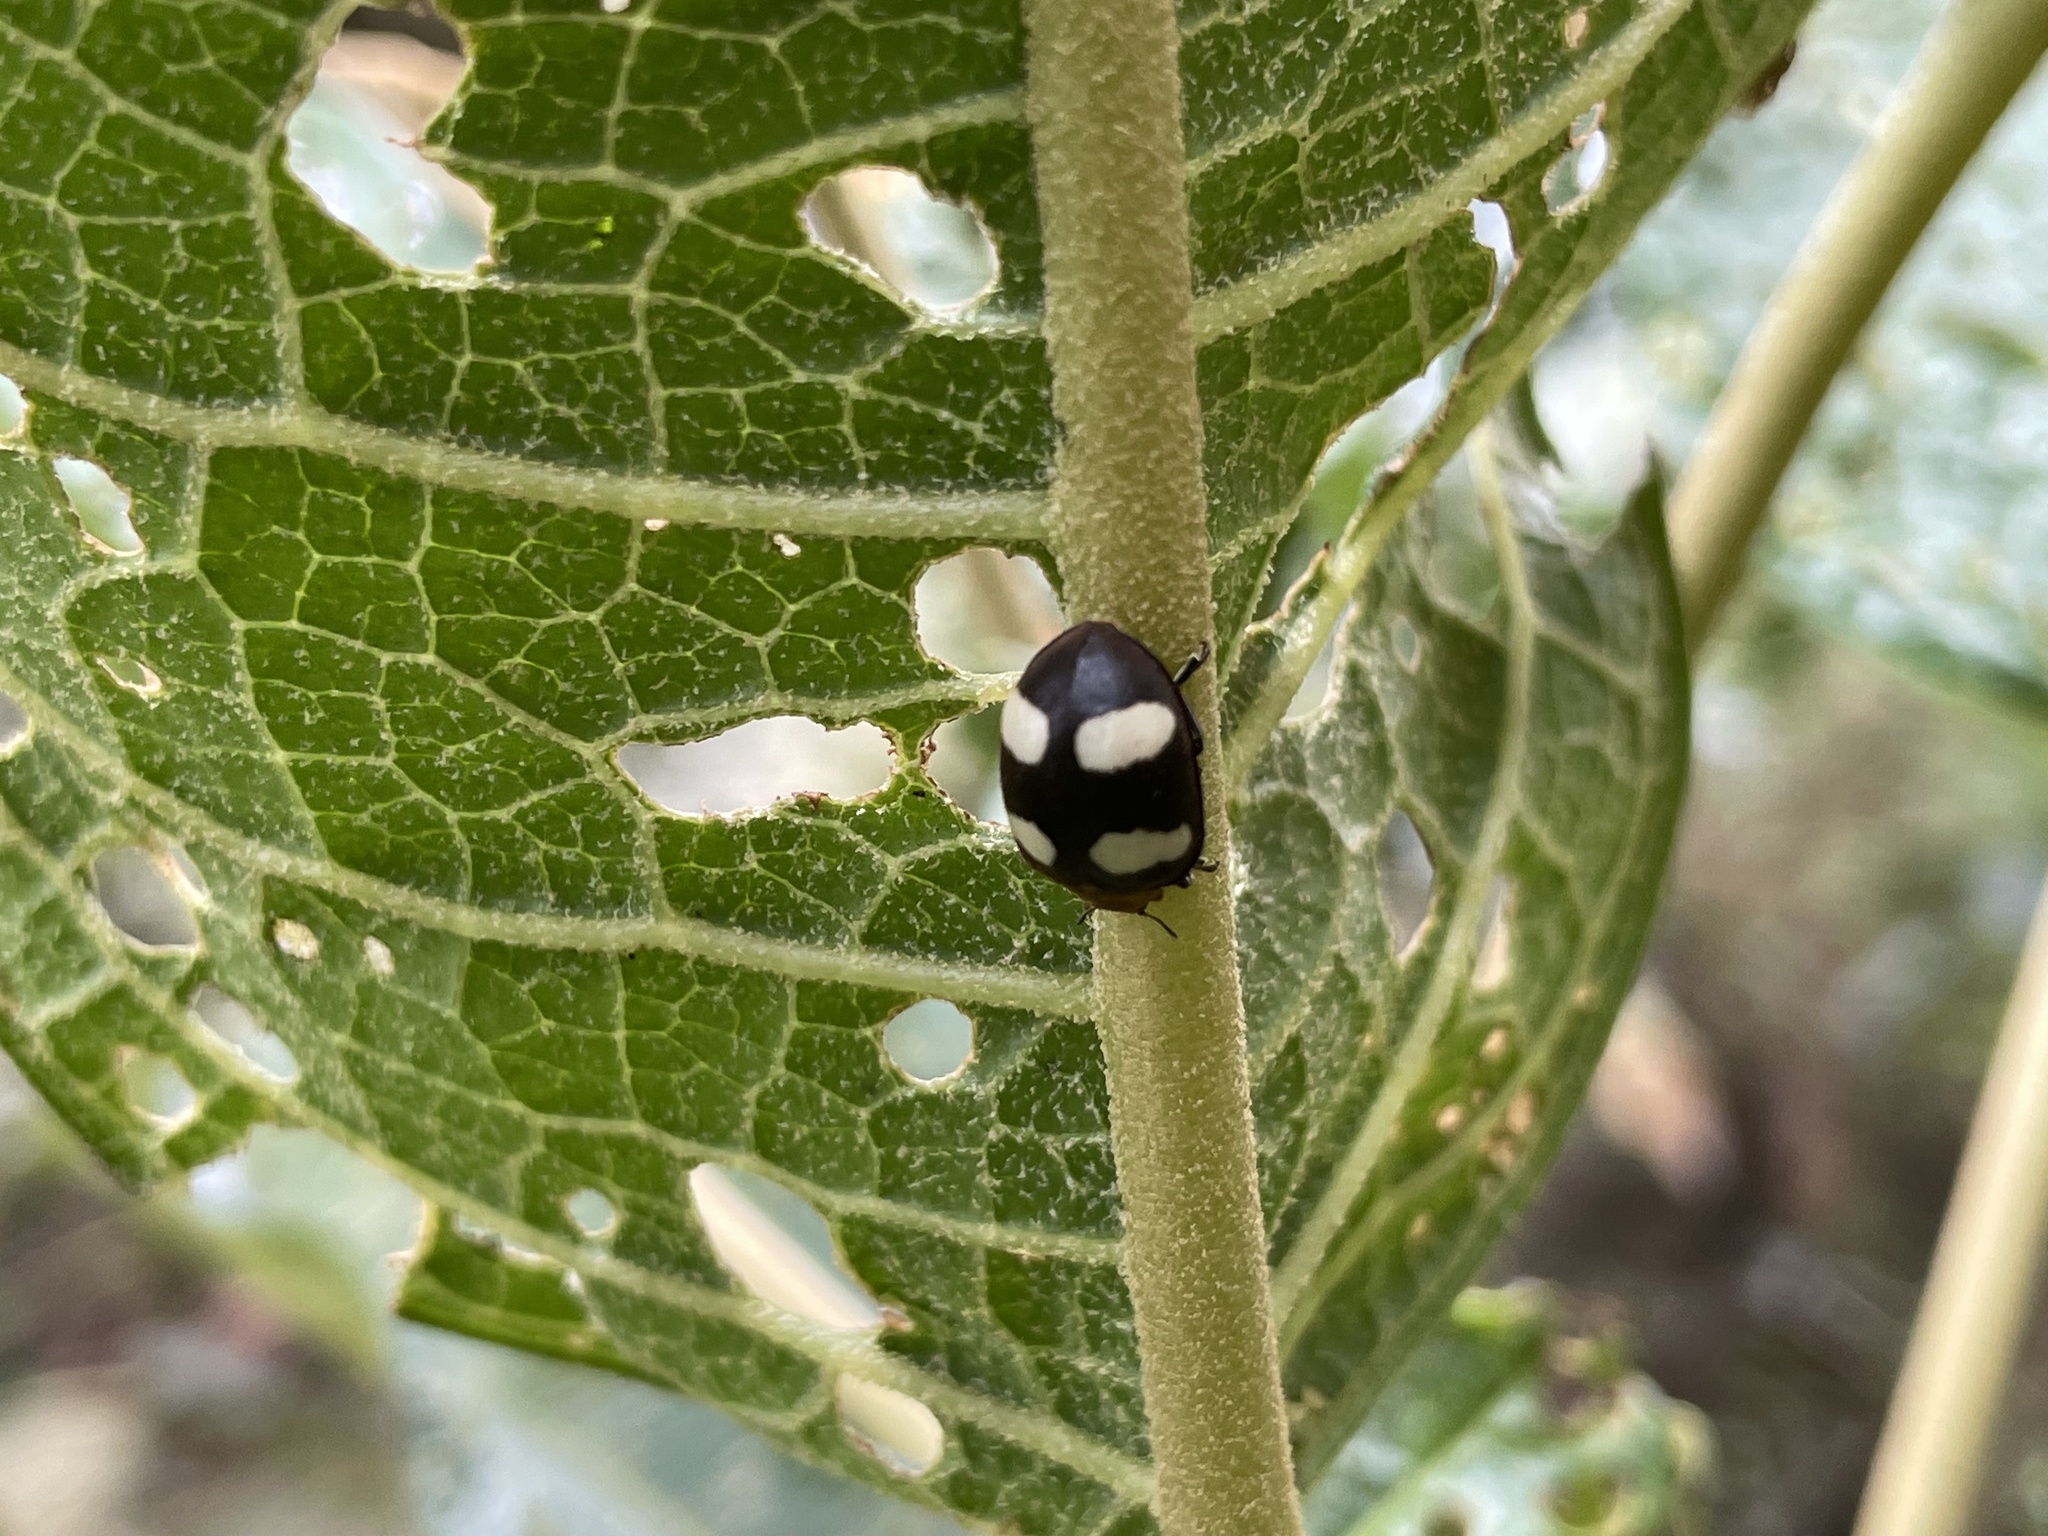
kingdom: Animalia
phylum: Arthropoda
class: Insecta
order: Coleoptera
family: Coccinellidae
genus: Epilachna
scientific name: Epilachna
